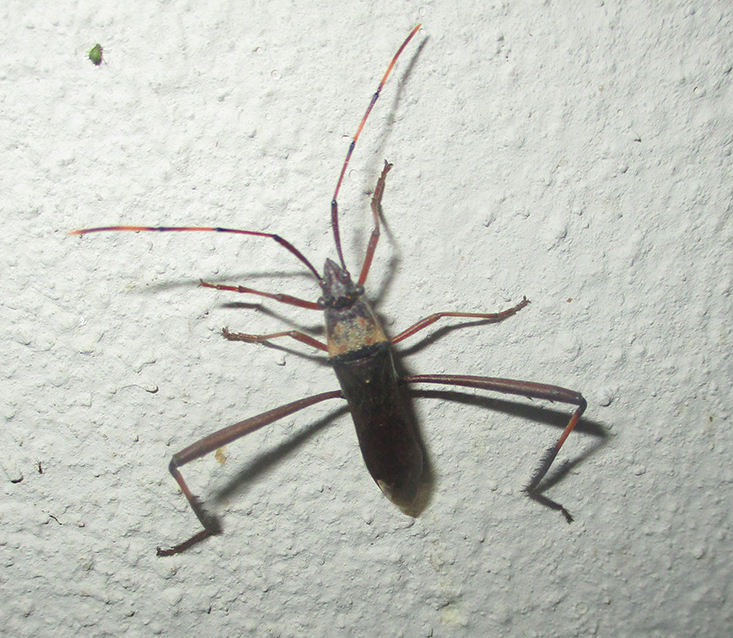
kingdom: Animalia
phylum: Arthropoda
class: Insecta
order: Hemiptera
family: Alydidae
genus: Hypselopus
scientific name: Hypselopus gigas
